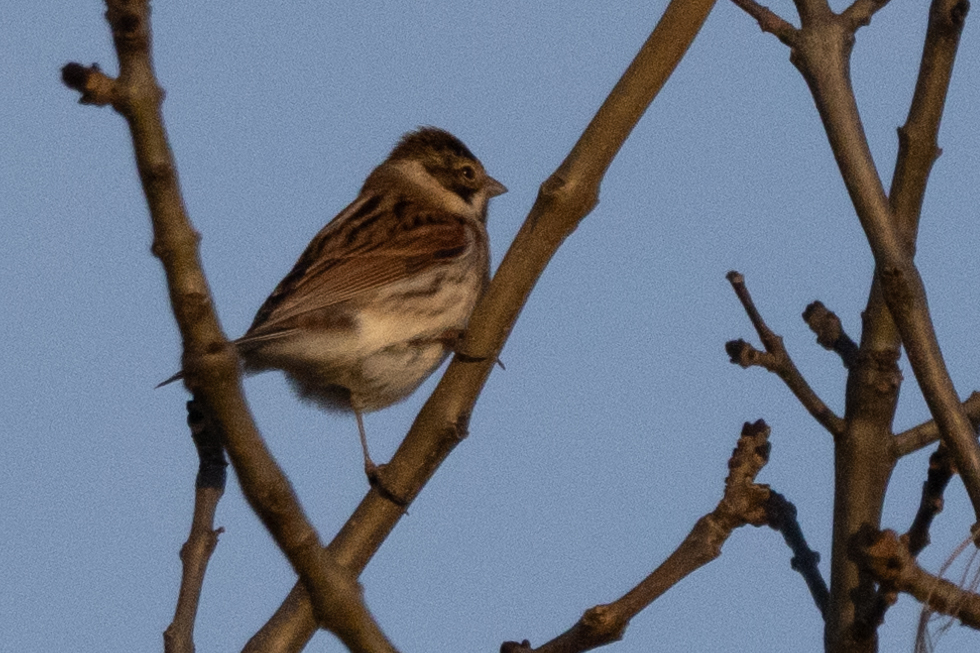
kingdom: Animalia
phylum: Chordata
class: Aves
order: Passeriformes
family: Emberizidae
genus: Emberiza
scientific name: Emberiza schoeniclus
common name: Reed bunting
